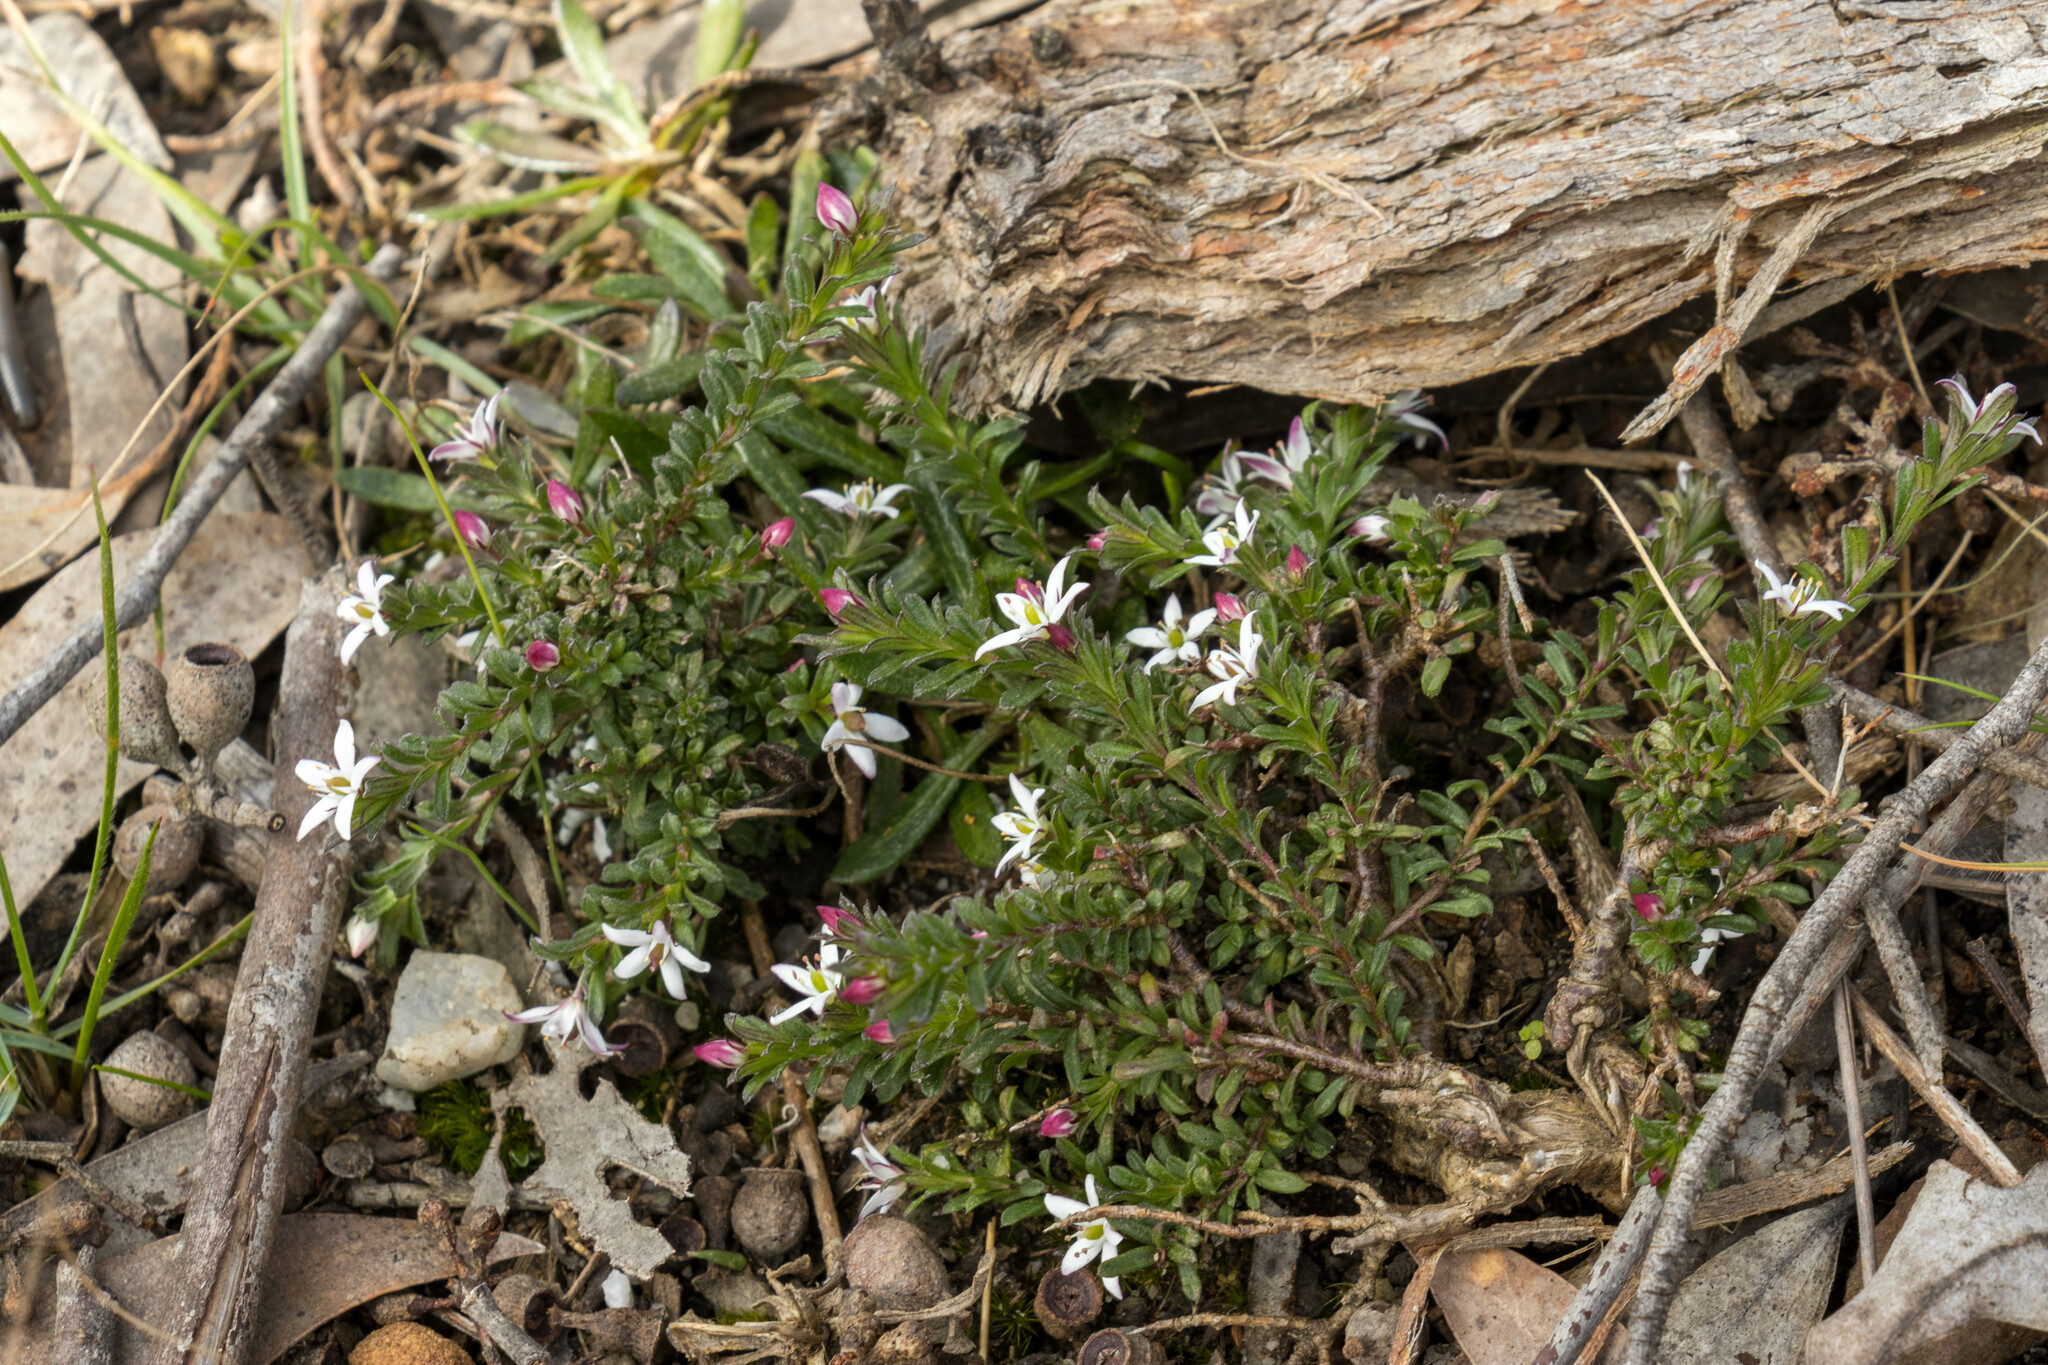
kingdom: Plantae
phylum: Tracheophyta
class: Magnoliopsida
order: Apiales
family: Pittosporaceae
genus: Rhytidosporum
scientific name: Rhytidosporum procumbens
